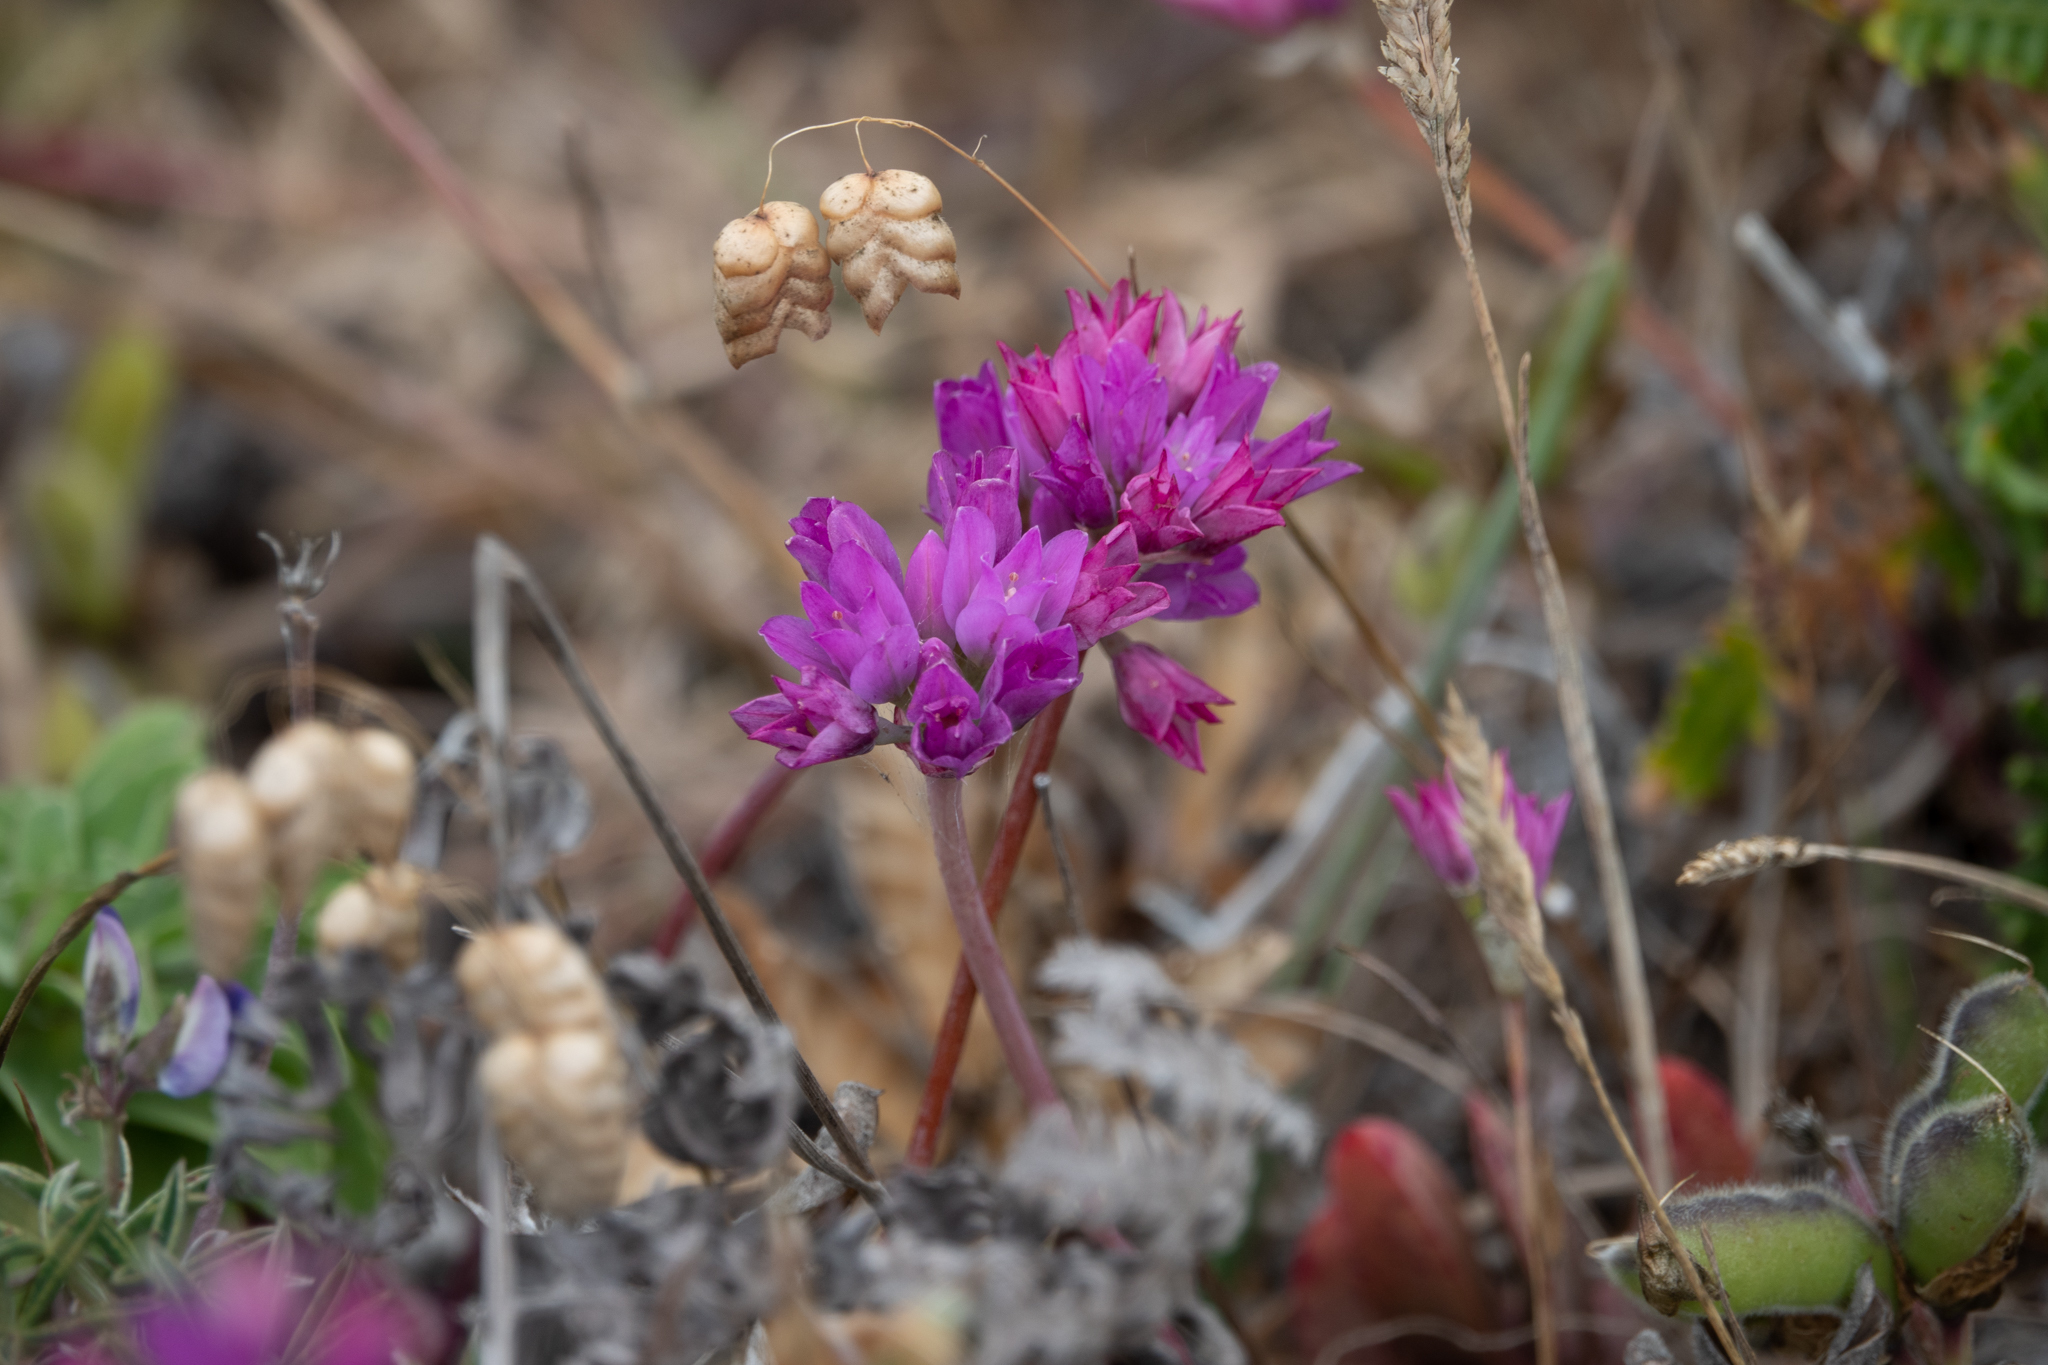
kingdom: Plantae
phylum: Tracheophyta
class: Liliopsida
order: Asparagales
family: Amaryllidaceae
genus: Allium
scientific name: Allium dichlamydeum
